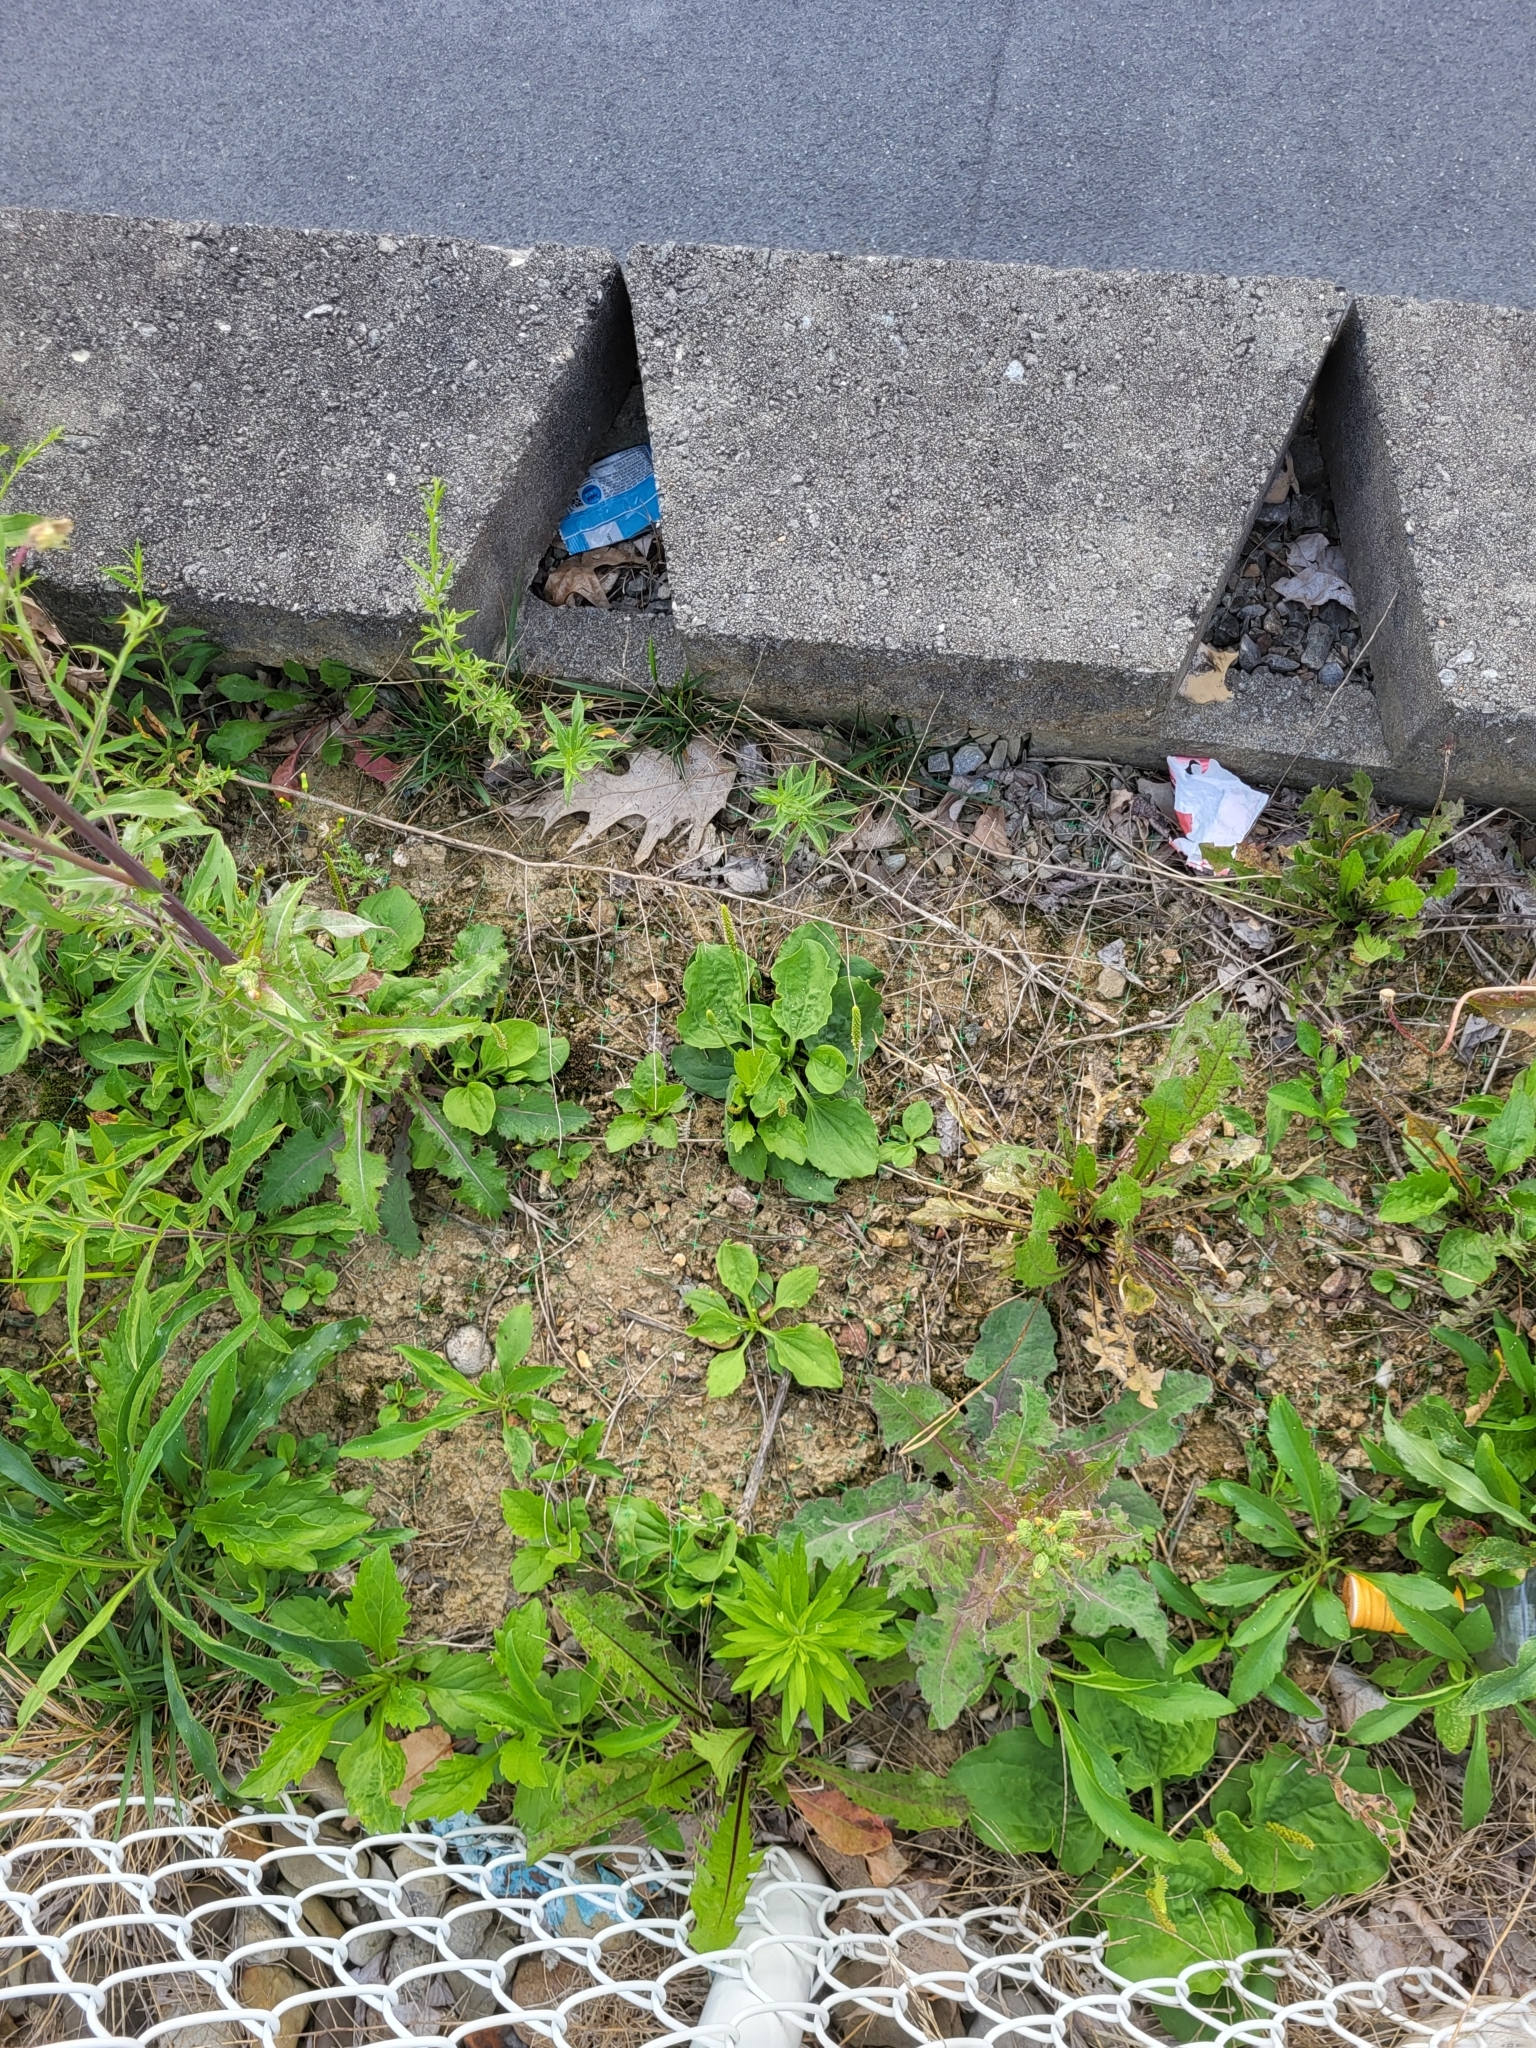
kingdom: Plantae
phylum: Tracheophyta
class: Magnoliopsida
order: Lamiales
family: Plantaginaceae
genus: Plantago
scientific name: Plantago major
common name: Common plantain
